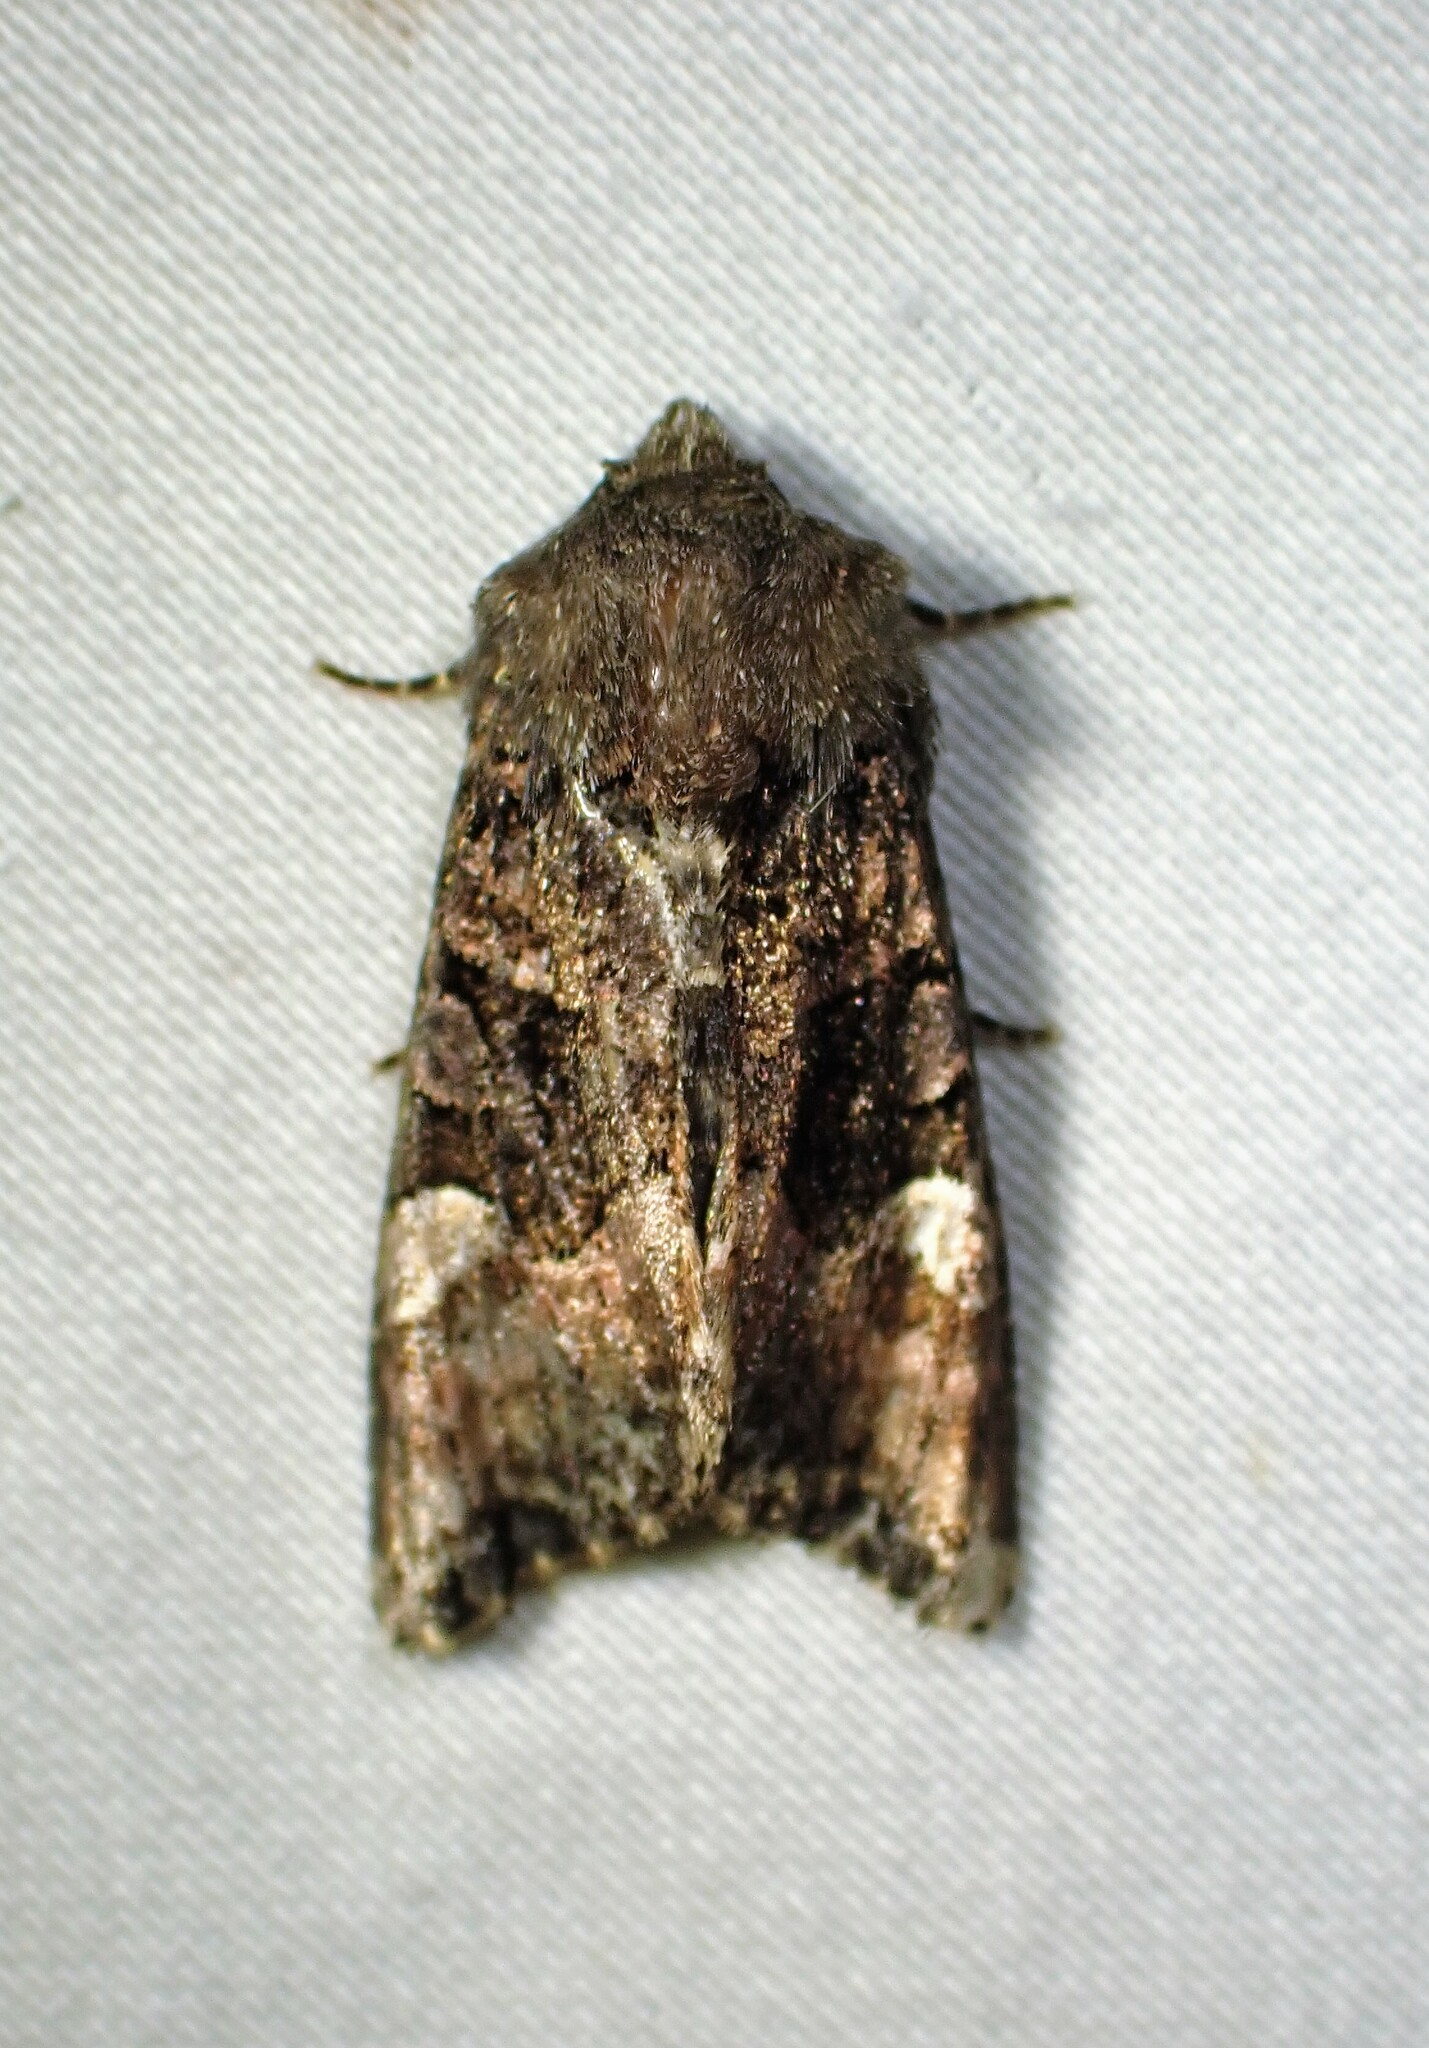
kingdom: Animalia
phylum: Arthropoda
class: Insecta
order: Lepidoptera
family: Noctuidae
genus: Euplexia
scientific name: Euplexia benesimilis
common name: American angle shades
